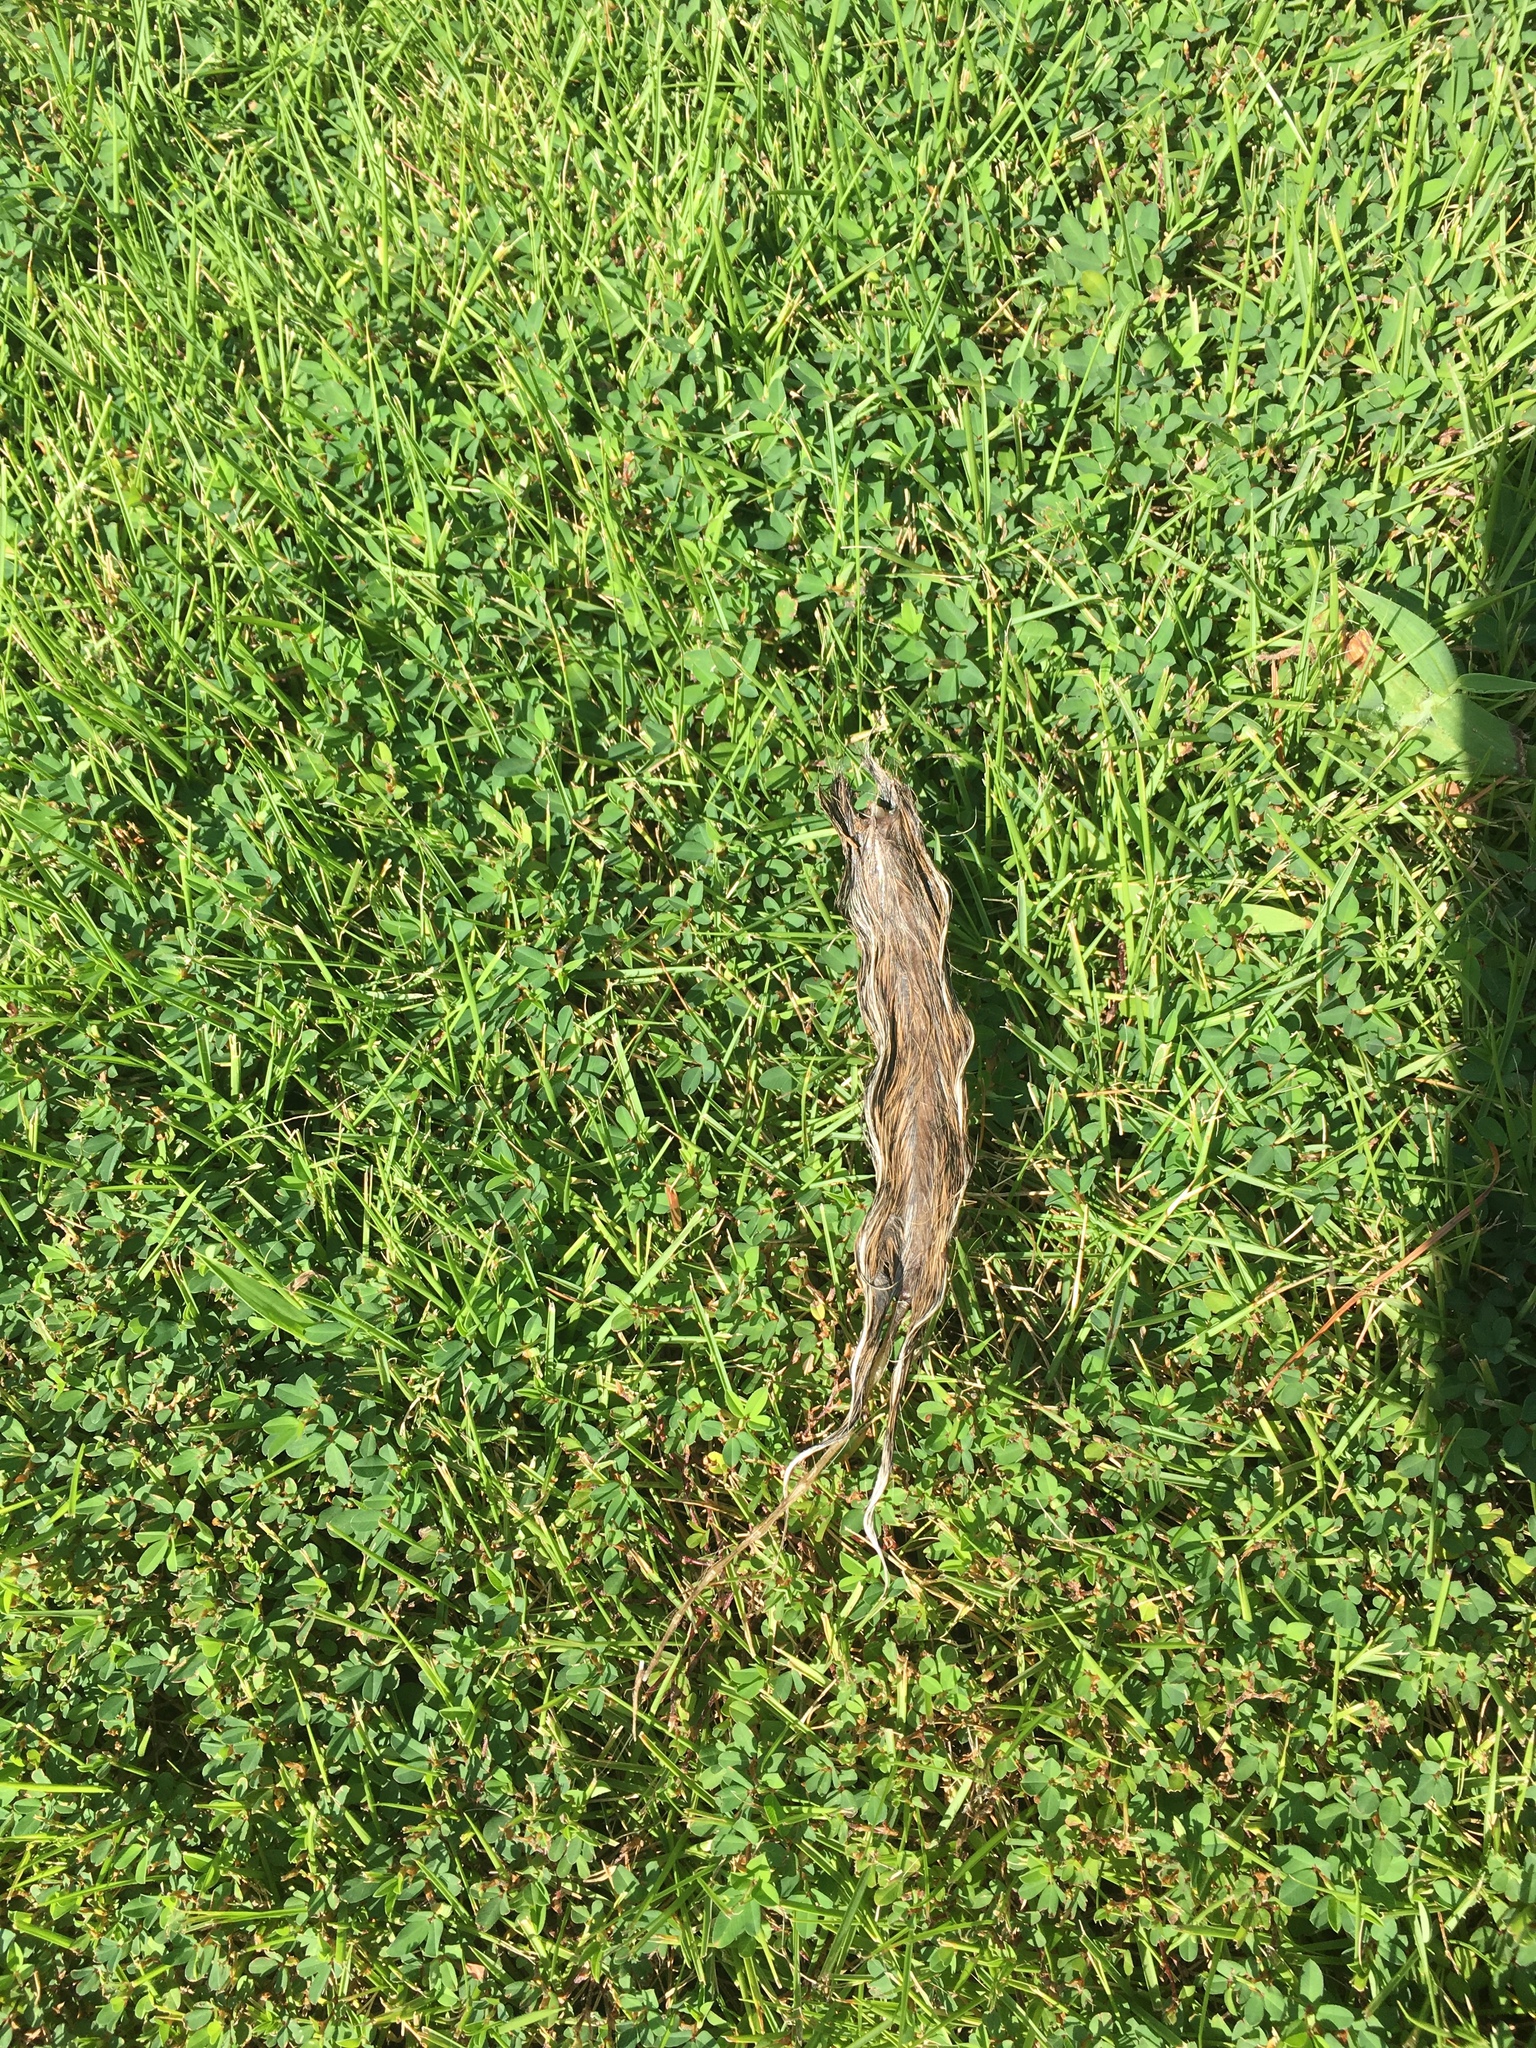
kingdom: Animalia
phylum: Chordata
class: Mammalia
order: Rodentia
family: Sciuridae
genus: Sciurus
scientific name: Sciurus carolinensis
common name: Eastern gray squirrel
